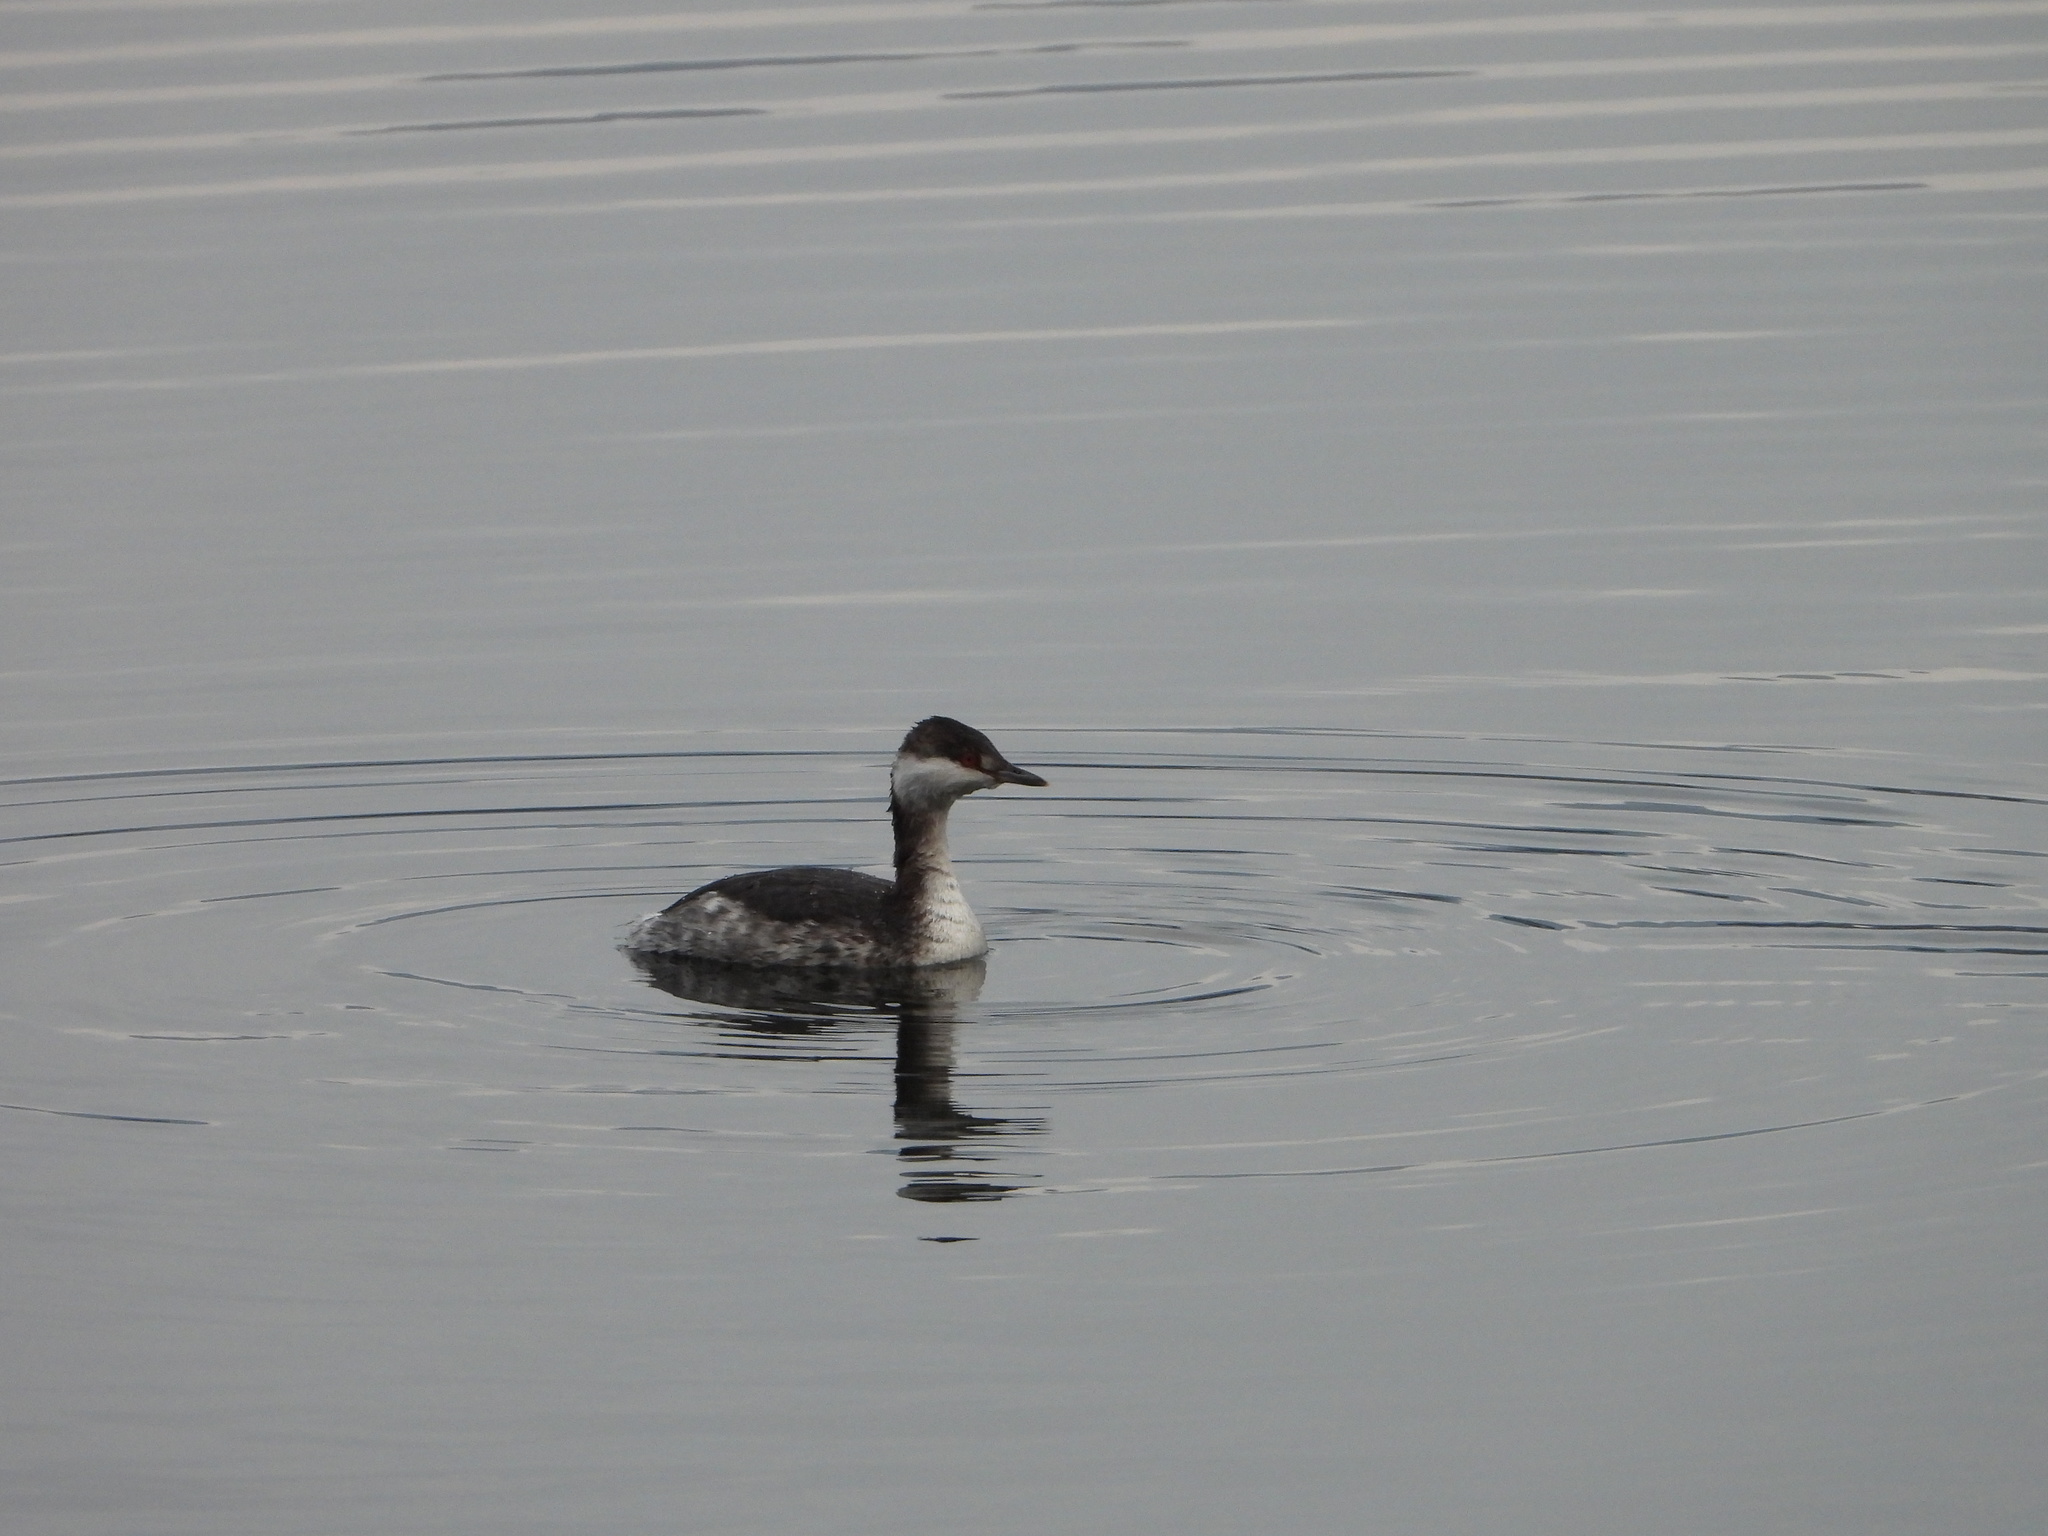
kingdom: Animalia
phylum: Chordata
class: Aves
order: Podicipediformes
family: Podicipedidae
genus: Podiceps
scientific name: Podiceps auritus
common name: Horned grebe
